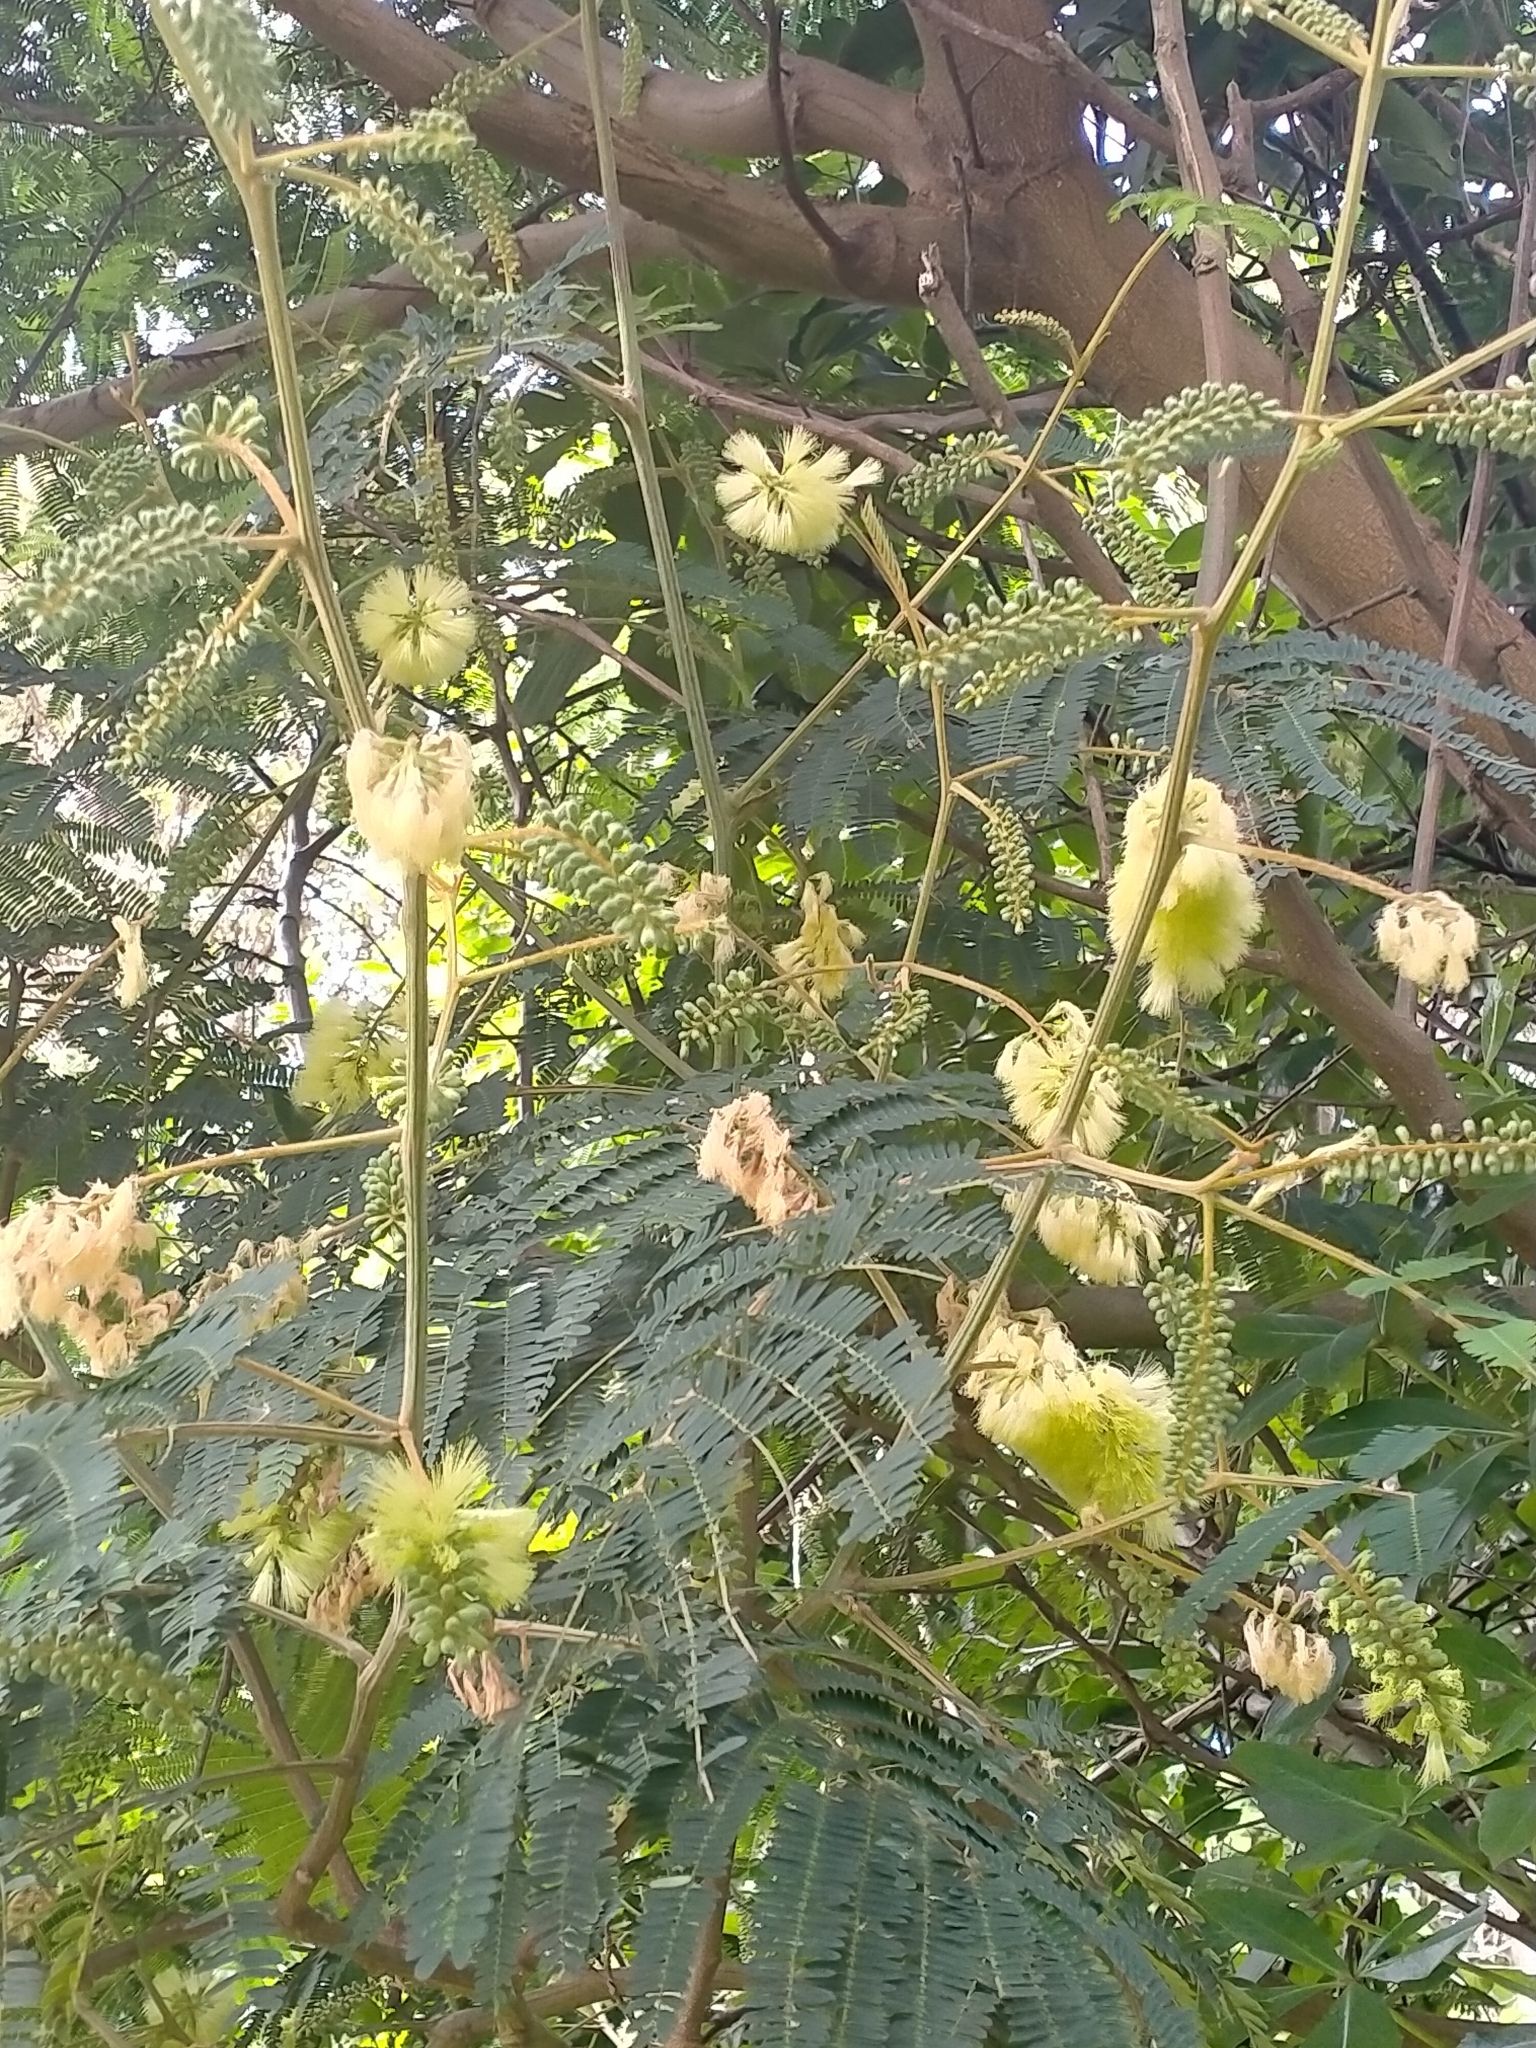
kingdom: Plantae
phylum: Tracheophyta
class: Magnoliopsida
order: Fabales
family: Fabaceae
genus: Paraserianthes
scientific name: Paraserianthes lophantha
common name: Plume albizia
